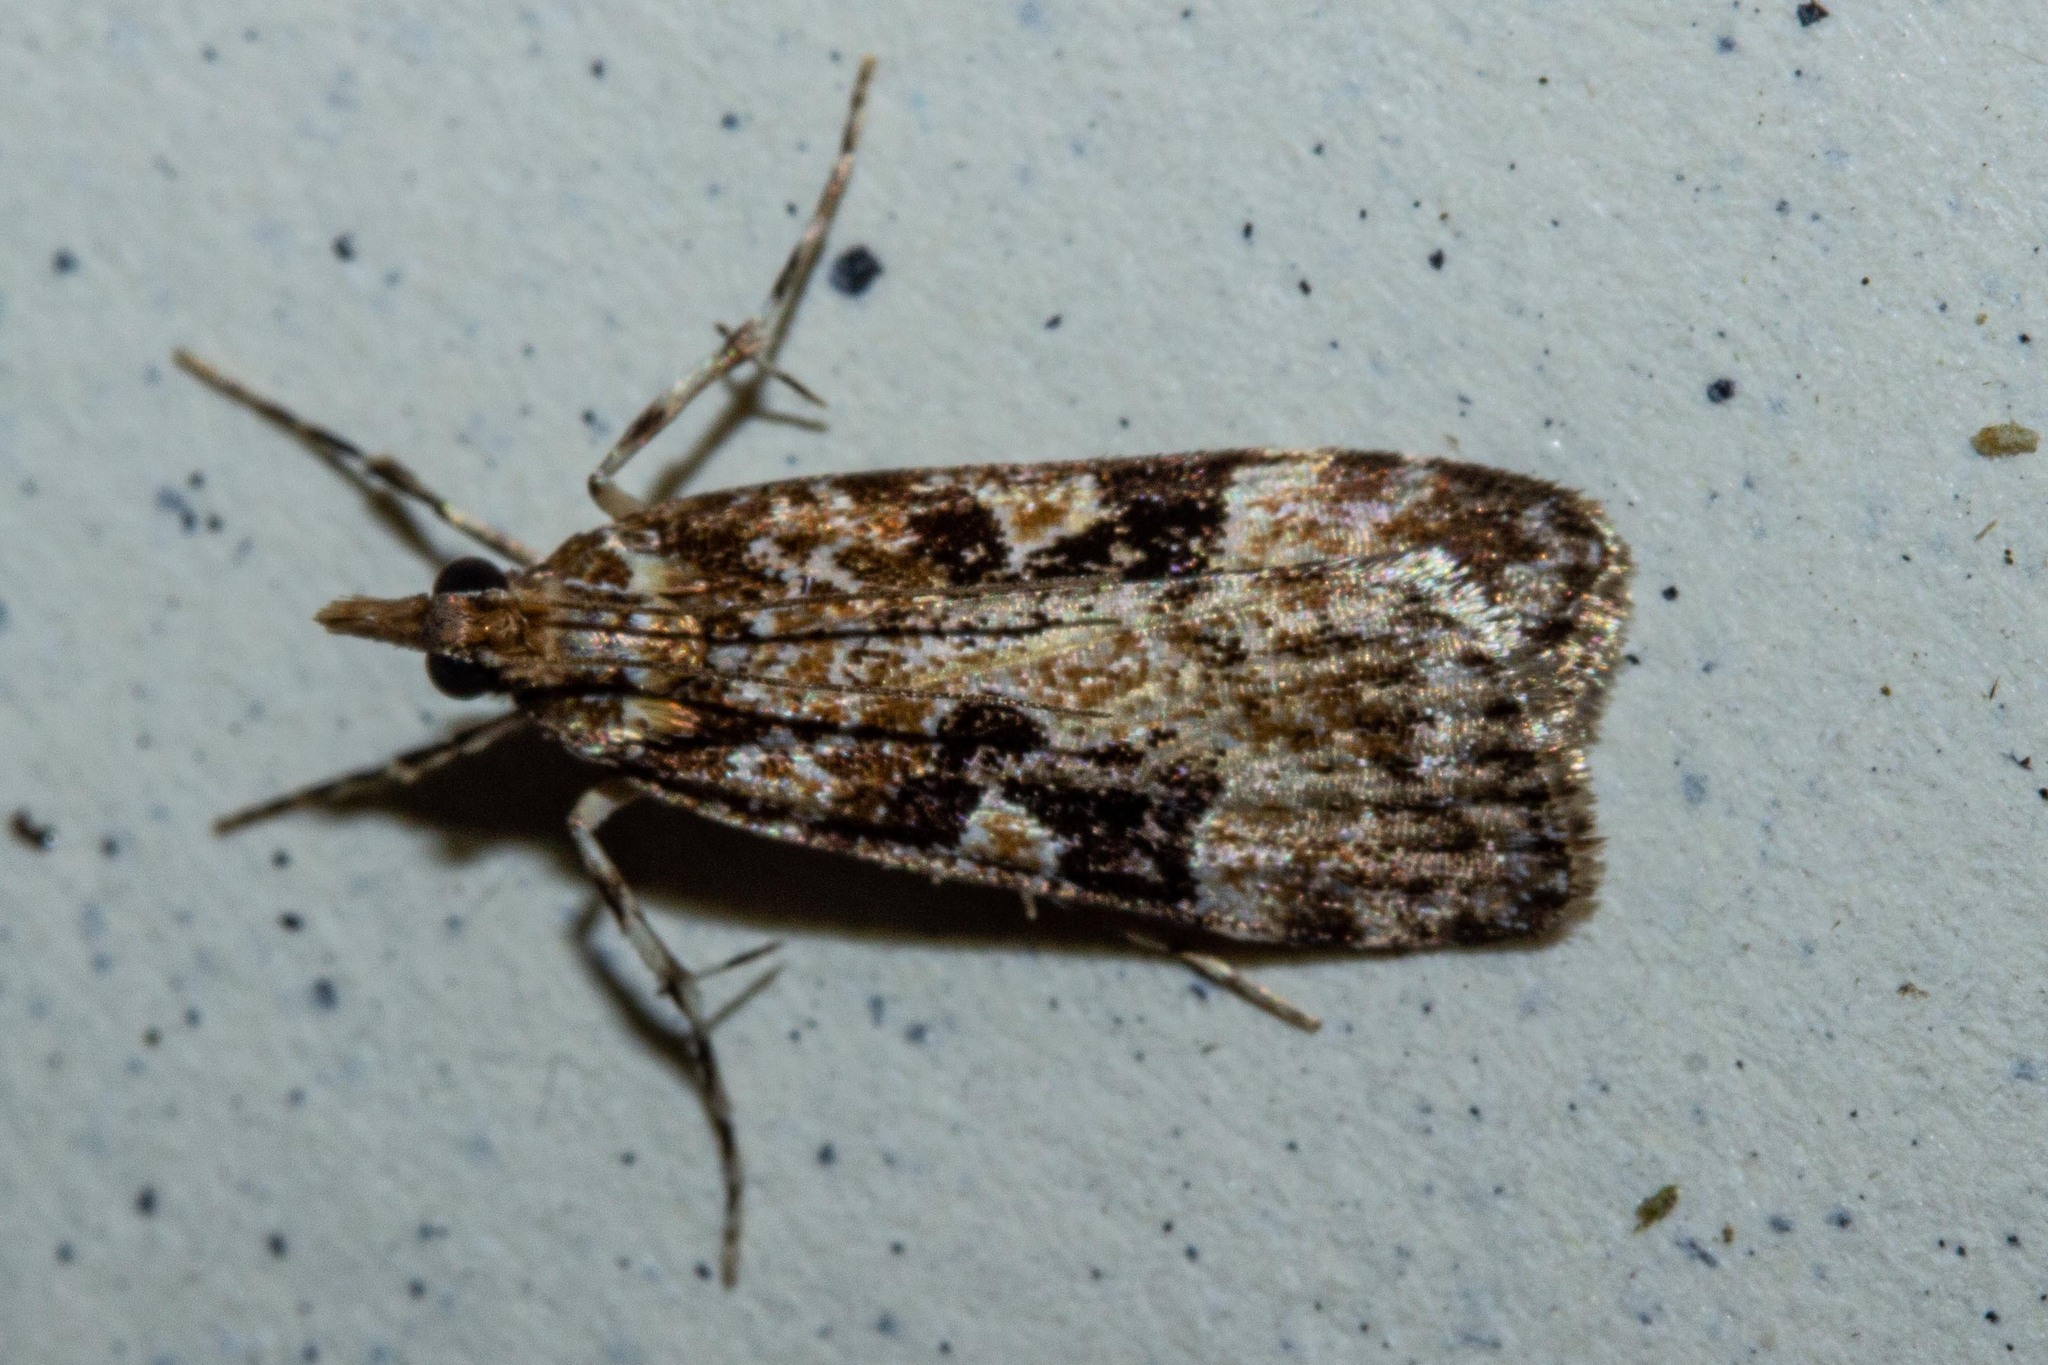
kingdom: Animalia
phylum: Arthropoda
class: Insecta
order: Lepidoptera
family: Crambidae
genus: Scoparia
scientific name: Scoparia ustimacula
